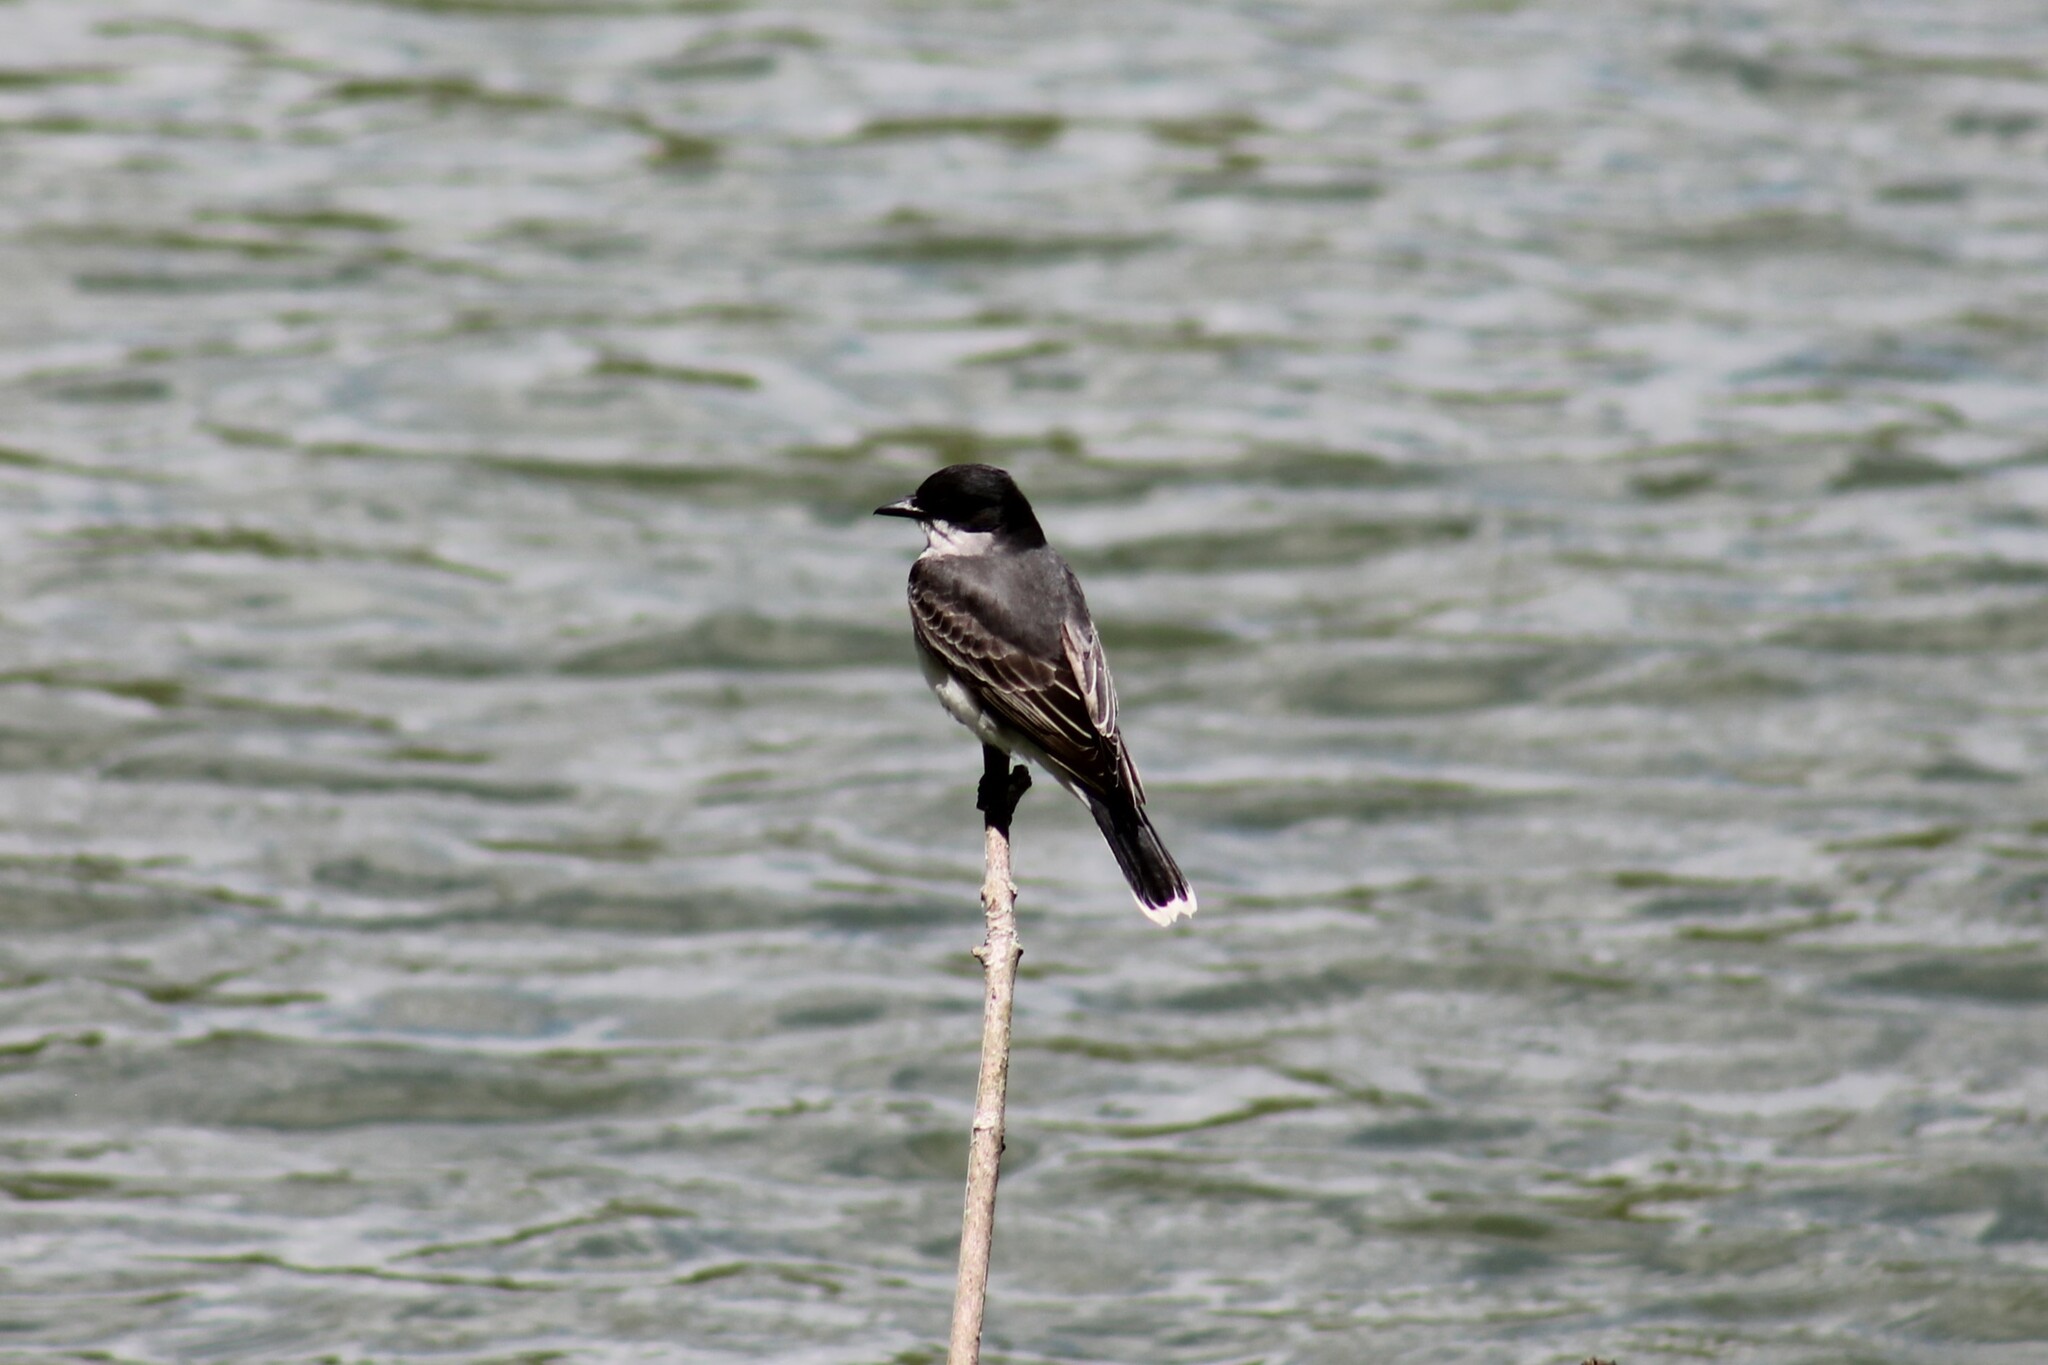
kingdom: Animalia
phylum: Chordata
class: Aves
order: Passeriformes
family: Tyrannidae
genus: Tyrannus
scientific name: Tyrannus tyrannus
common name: Eastern kingbird
